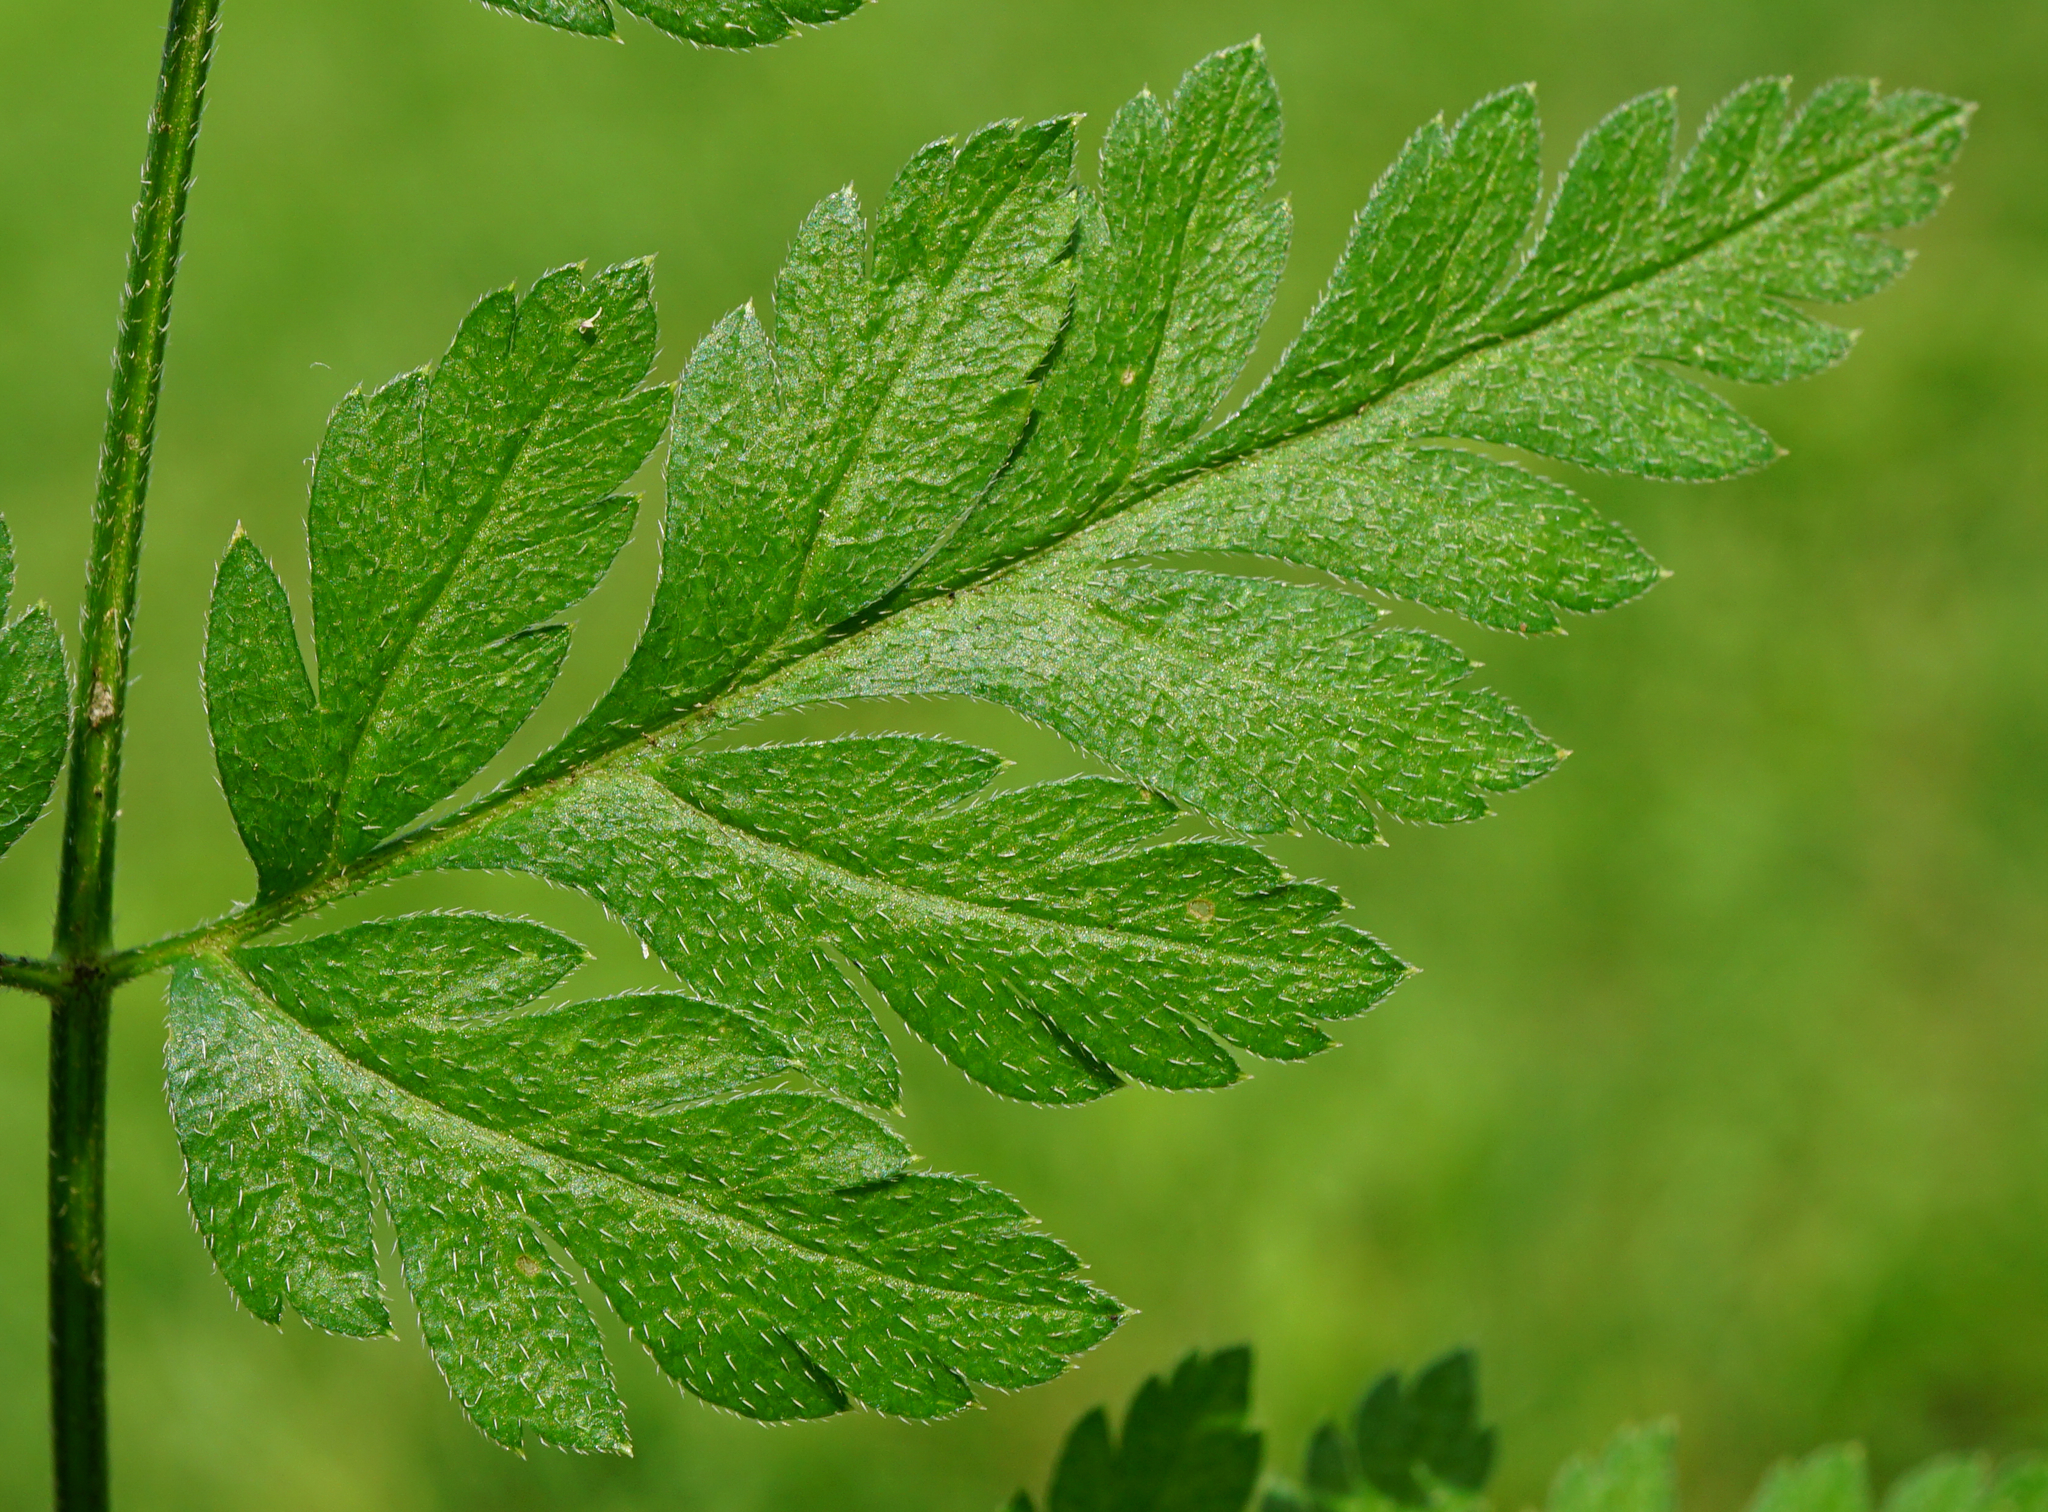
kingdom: Plantae
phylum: Tracheophyta
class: Magnoliopsida
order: Apiales
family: Apiaceae
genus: Torilis
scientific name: Torilis japonica
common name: Upright hedge-parsley
